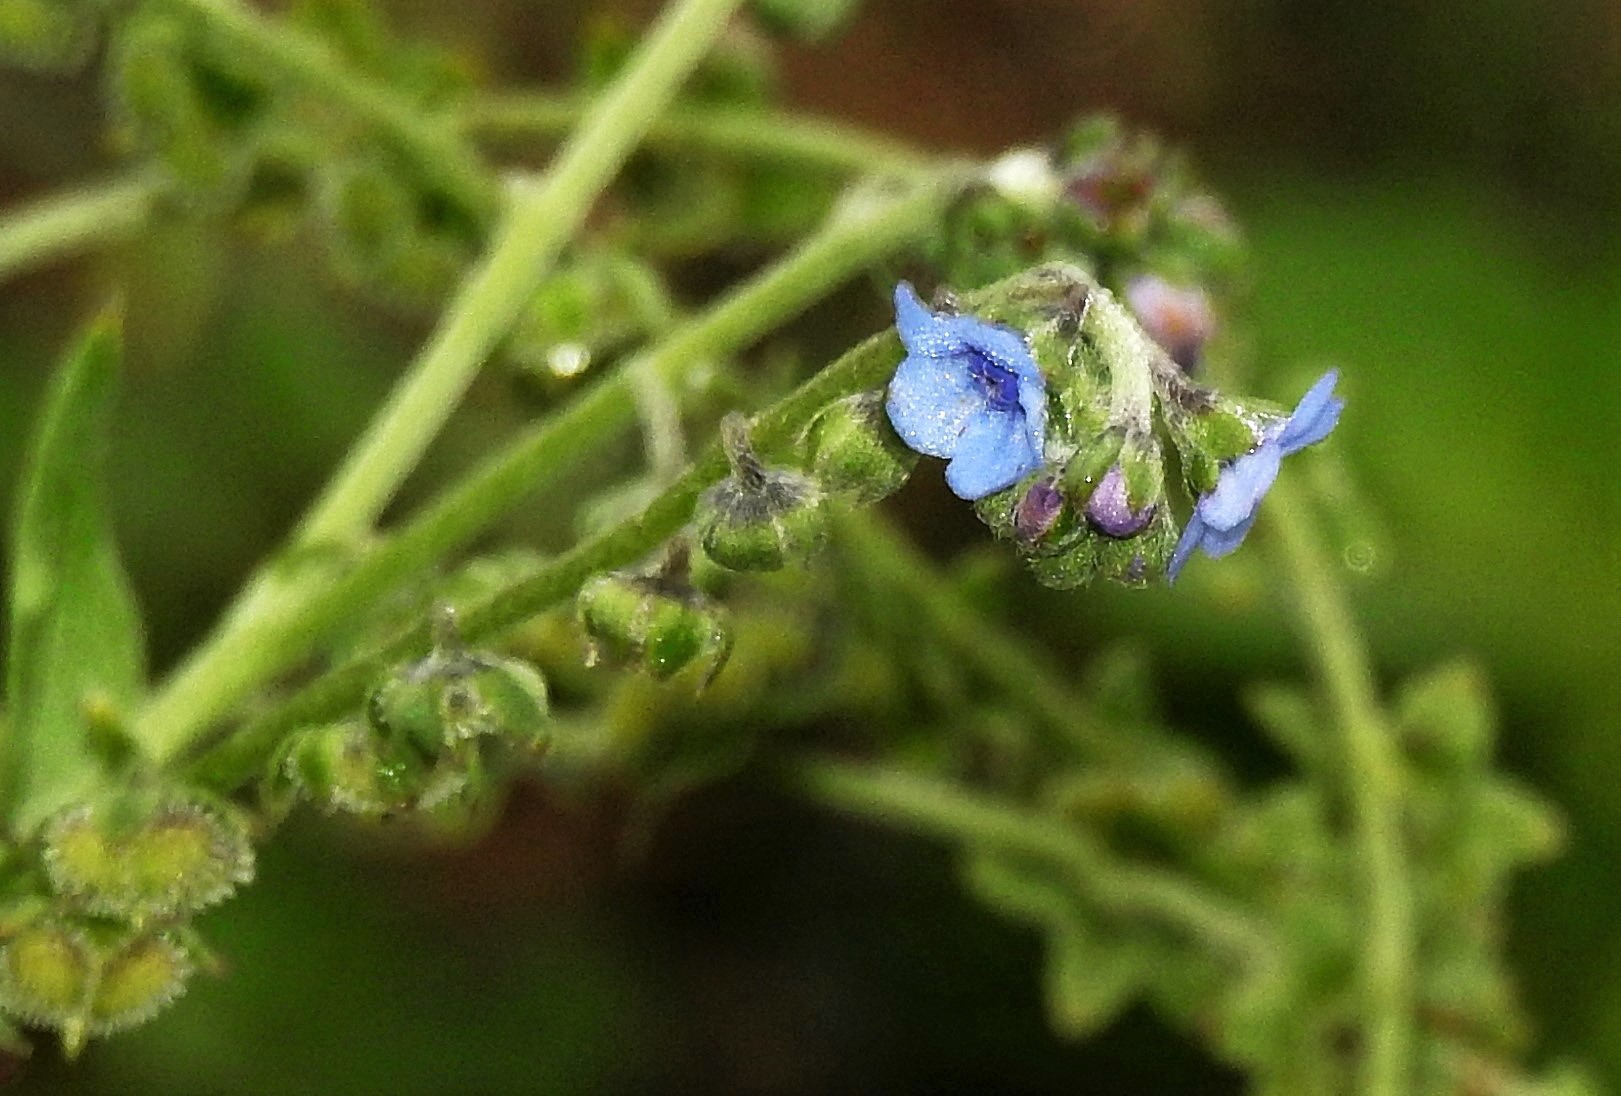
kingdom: Plantae
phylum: Tracheophyta
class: Magnoliopsida
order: Boraginales
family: Boraginaceae
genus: Cynoglossum
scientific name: Cynoglossum amabile
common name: Chinese hound's tongue
